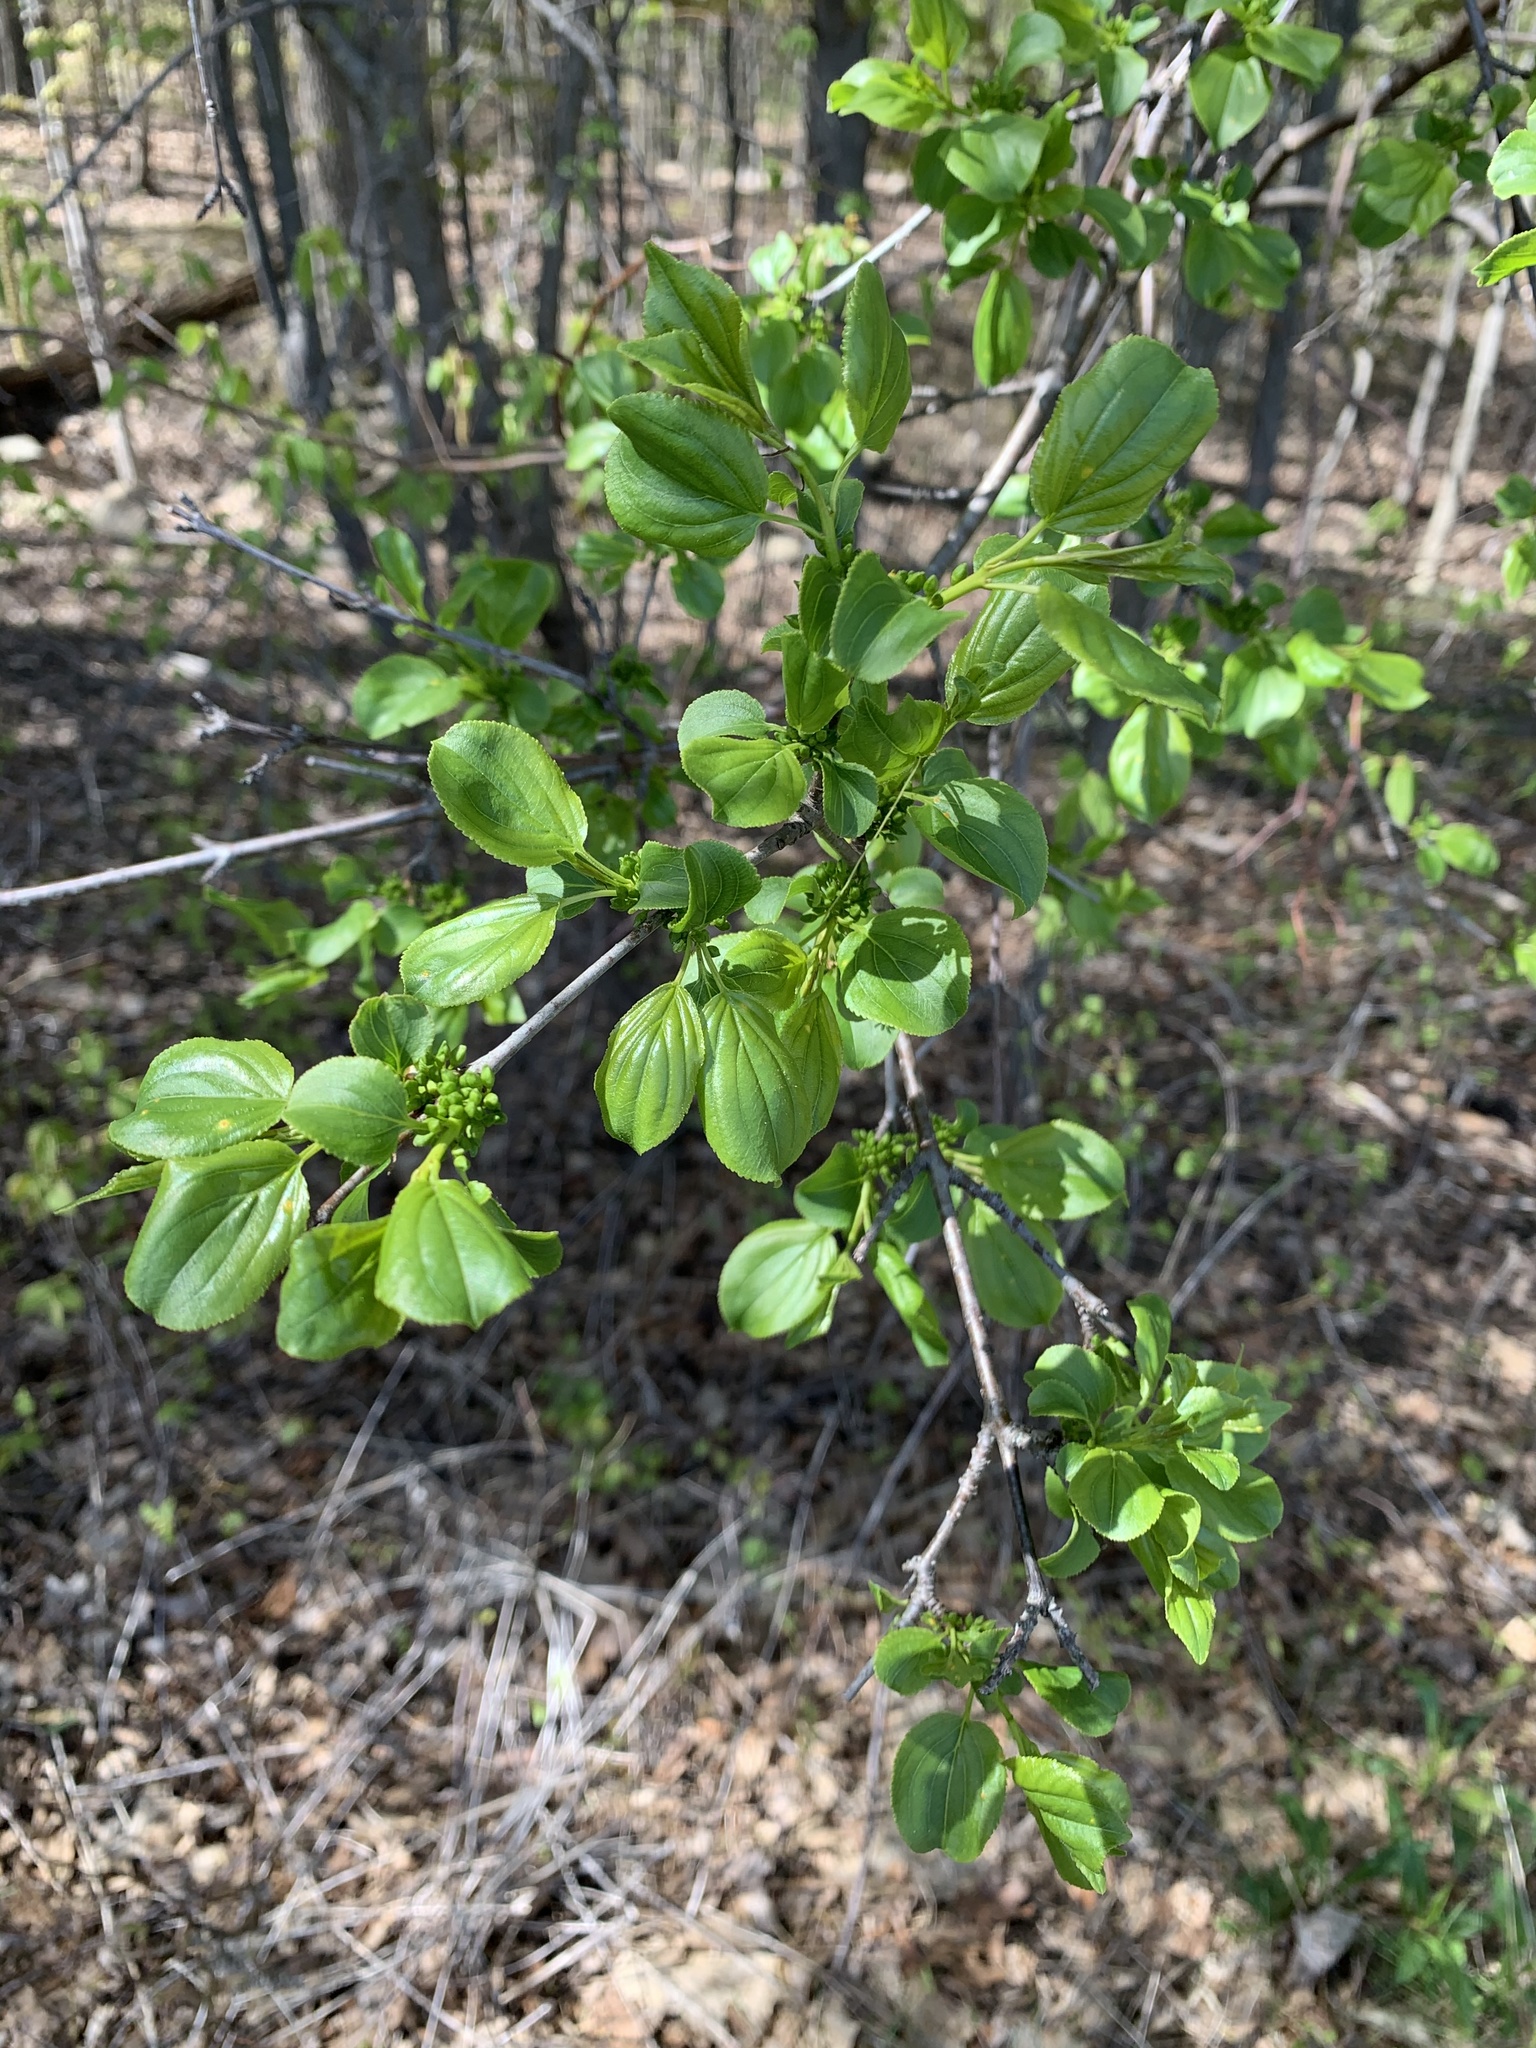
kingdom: Plantae
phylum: Tracheophyta
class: Magnoliopsida
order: Rosales
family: Rhamnaceae
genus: Rhamnus
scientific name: Rhamnus cathartica
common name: Common buckthorn
